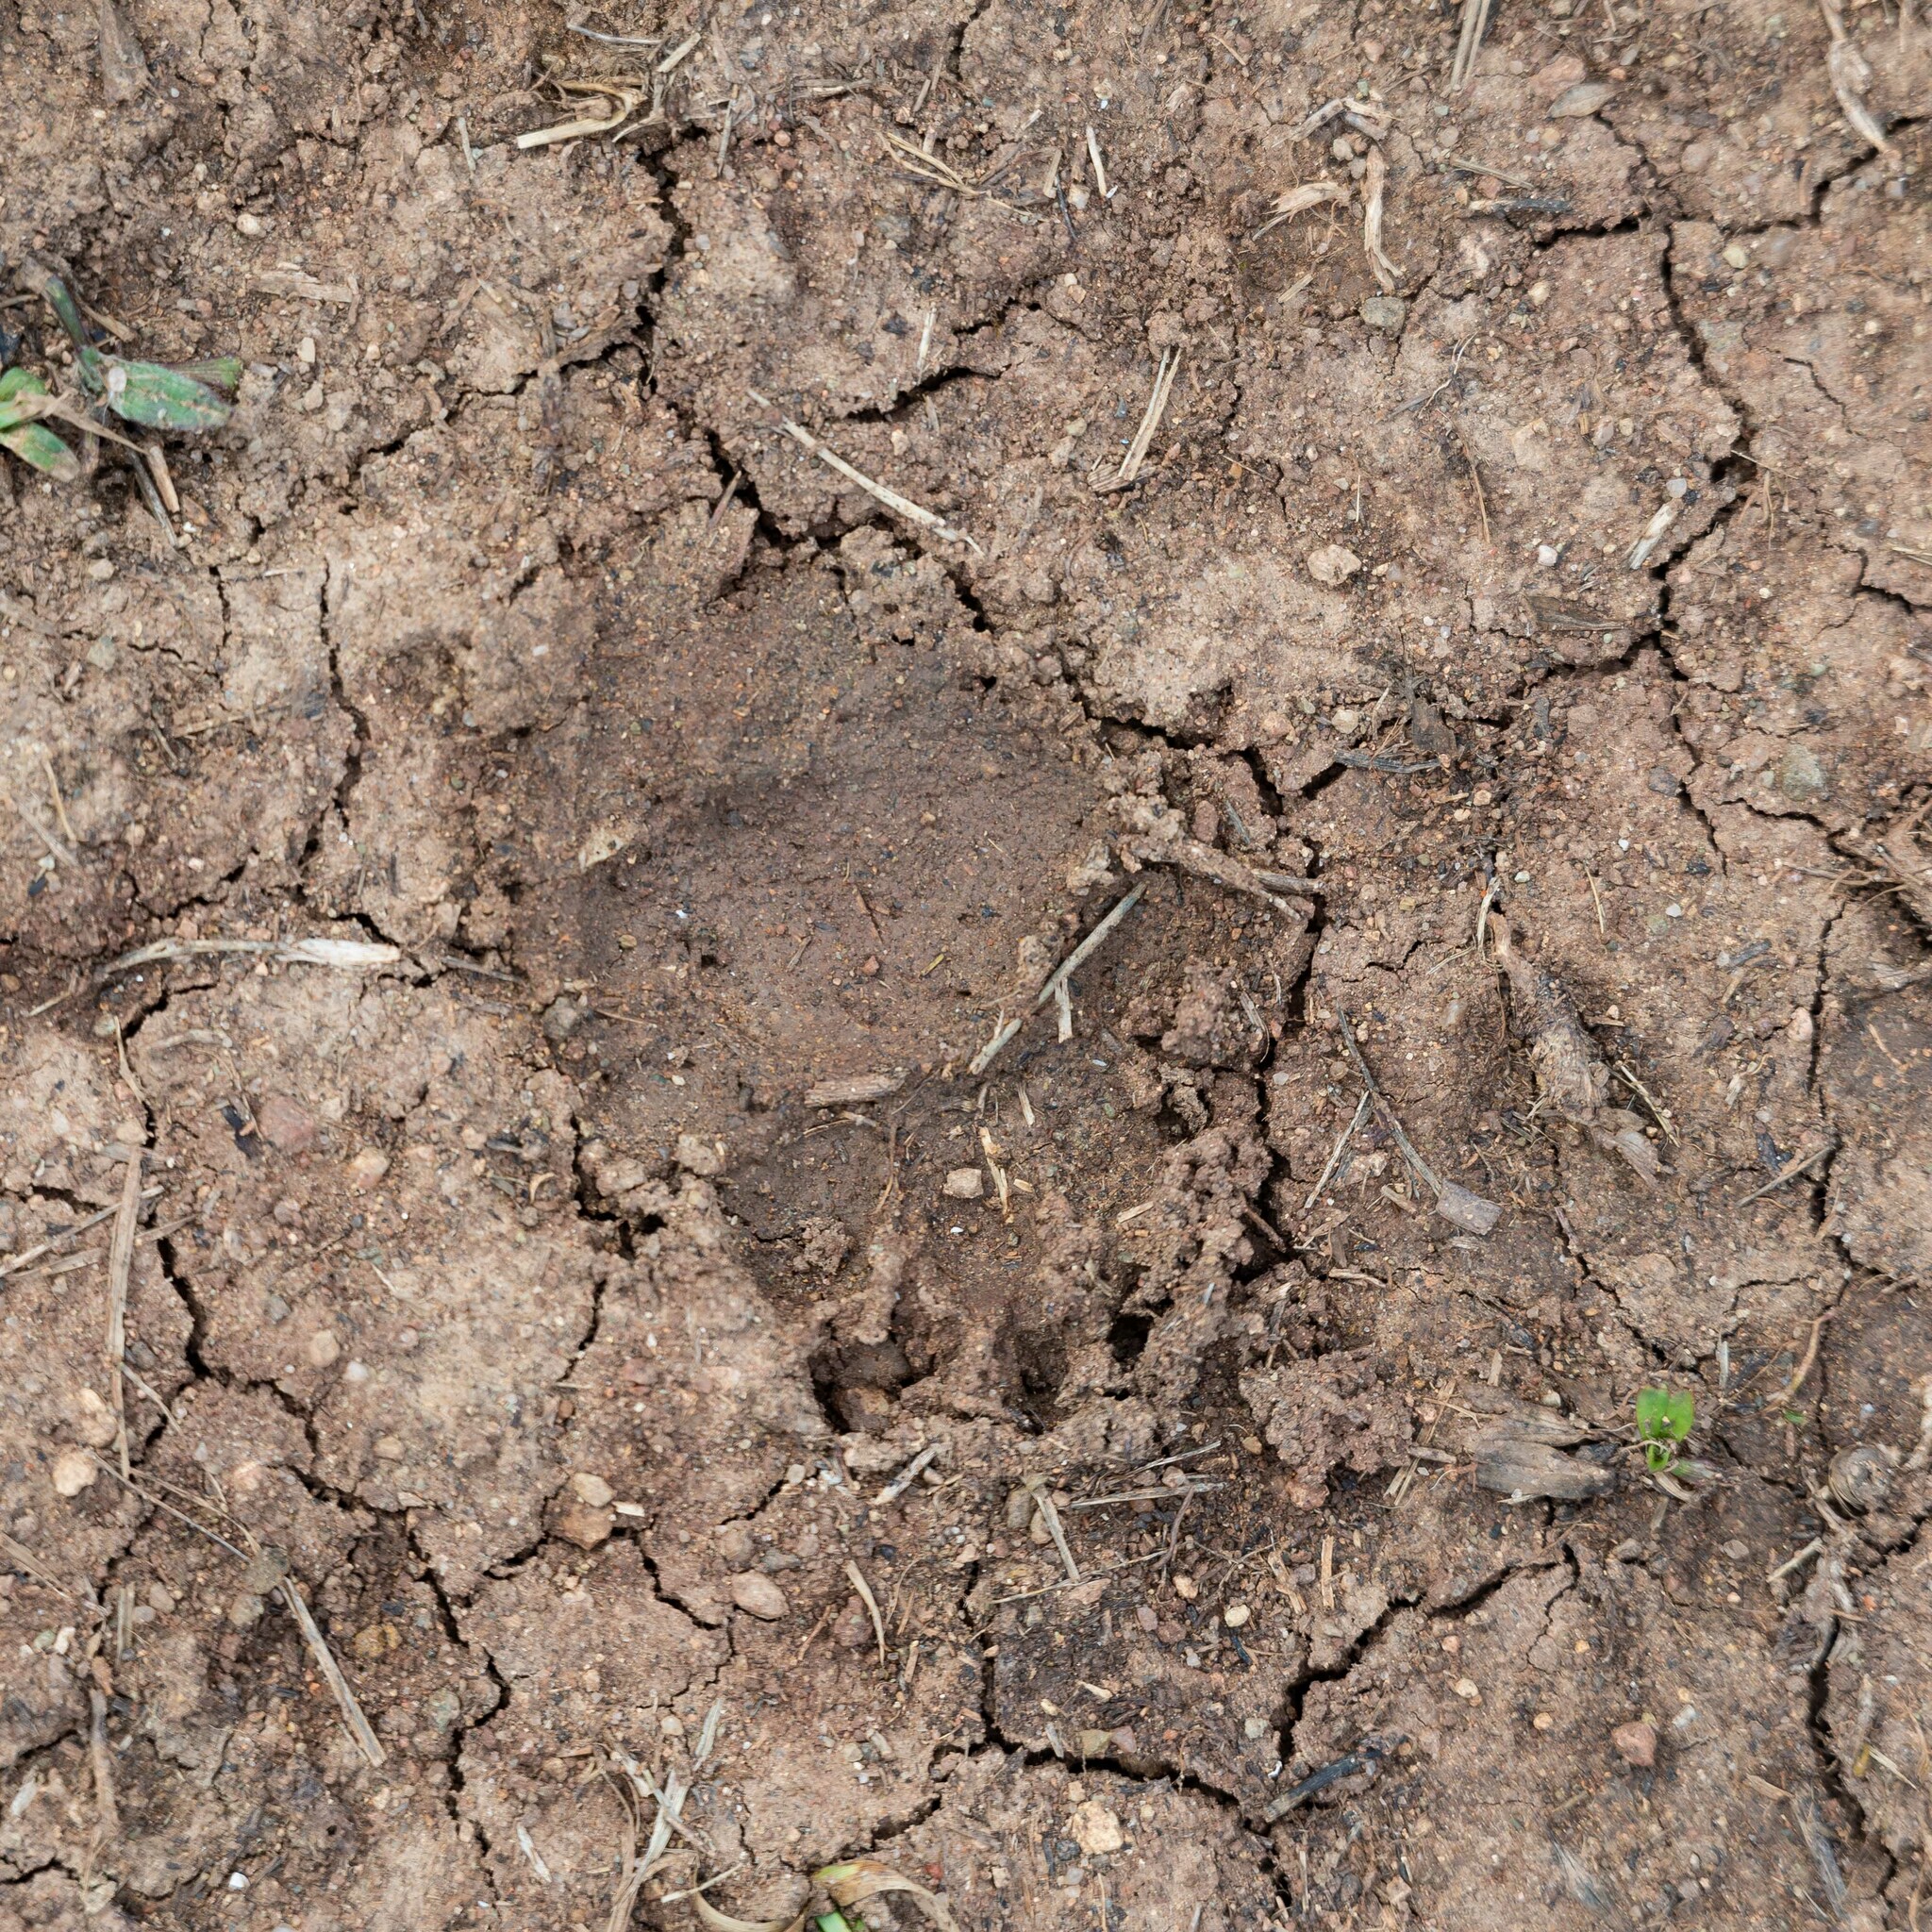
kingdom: Animalia
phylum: Chordata
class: Mammalia
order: Carnivora
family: Mustelidae
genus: Meles
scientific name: Meles meles
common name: Eurasian badger
